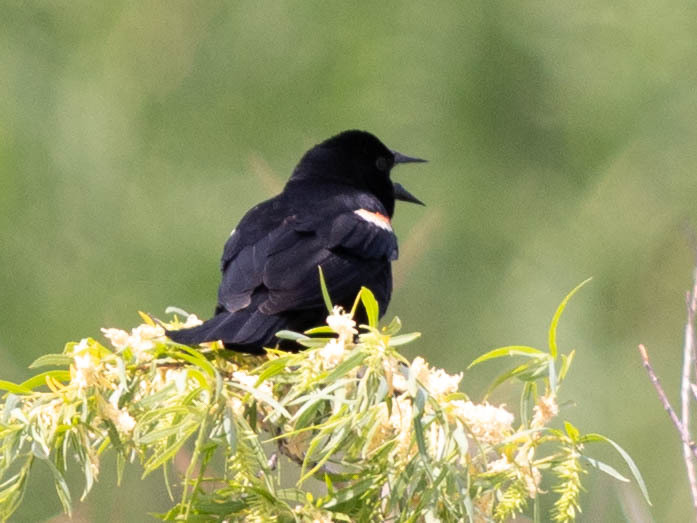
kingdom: Animalia
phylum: Chordata
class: Aves
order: Passeriformes
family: Icteridae
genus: Agelaius
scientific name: Agelaius phoeniceus
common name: Red-winged blackbird
